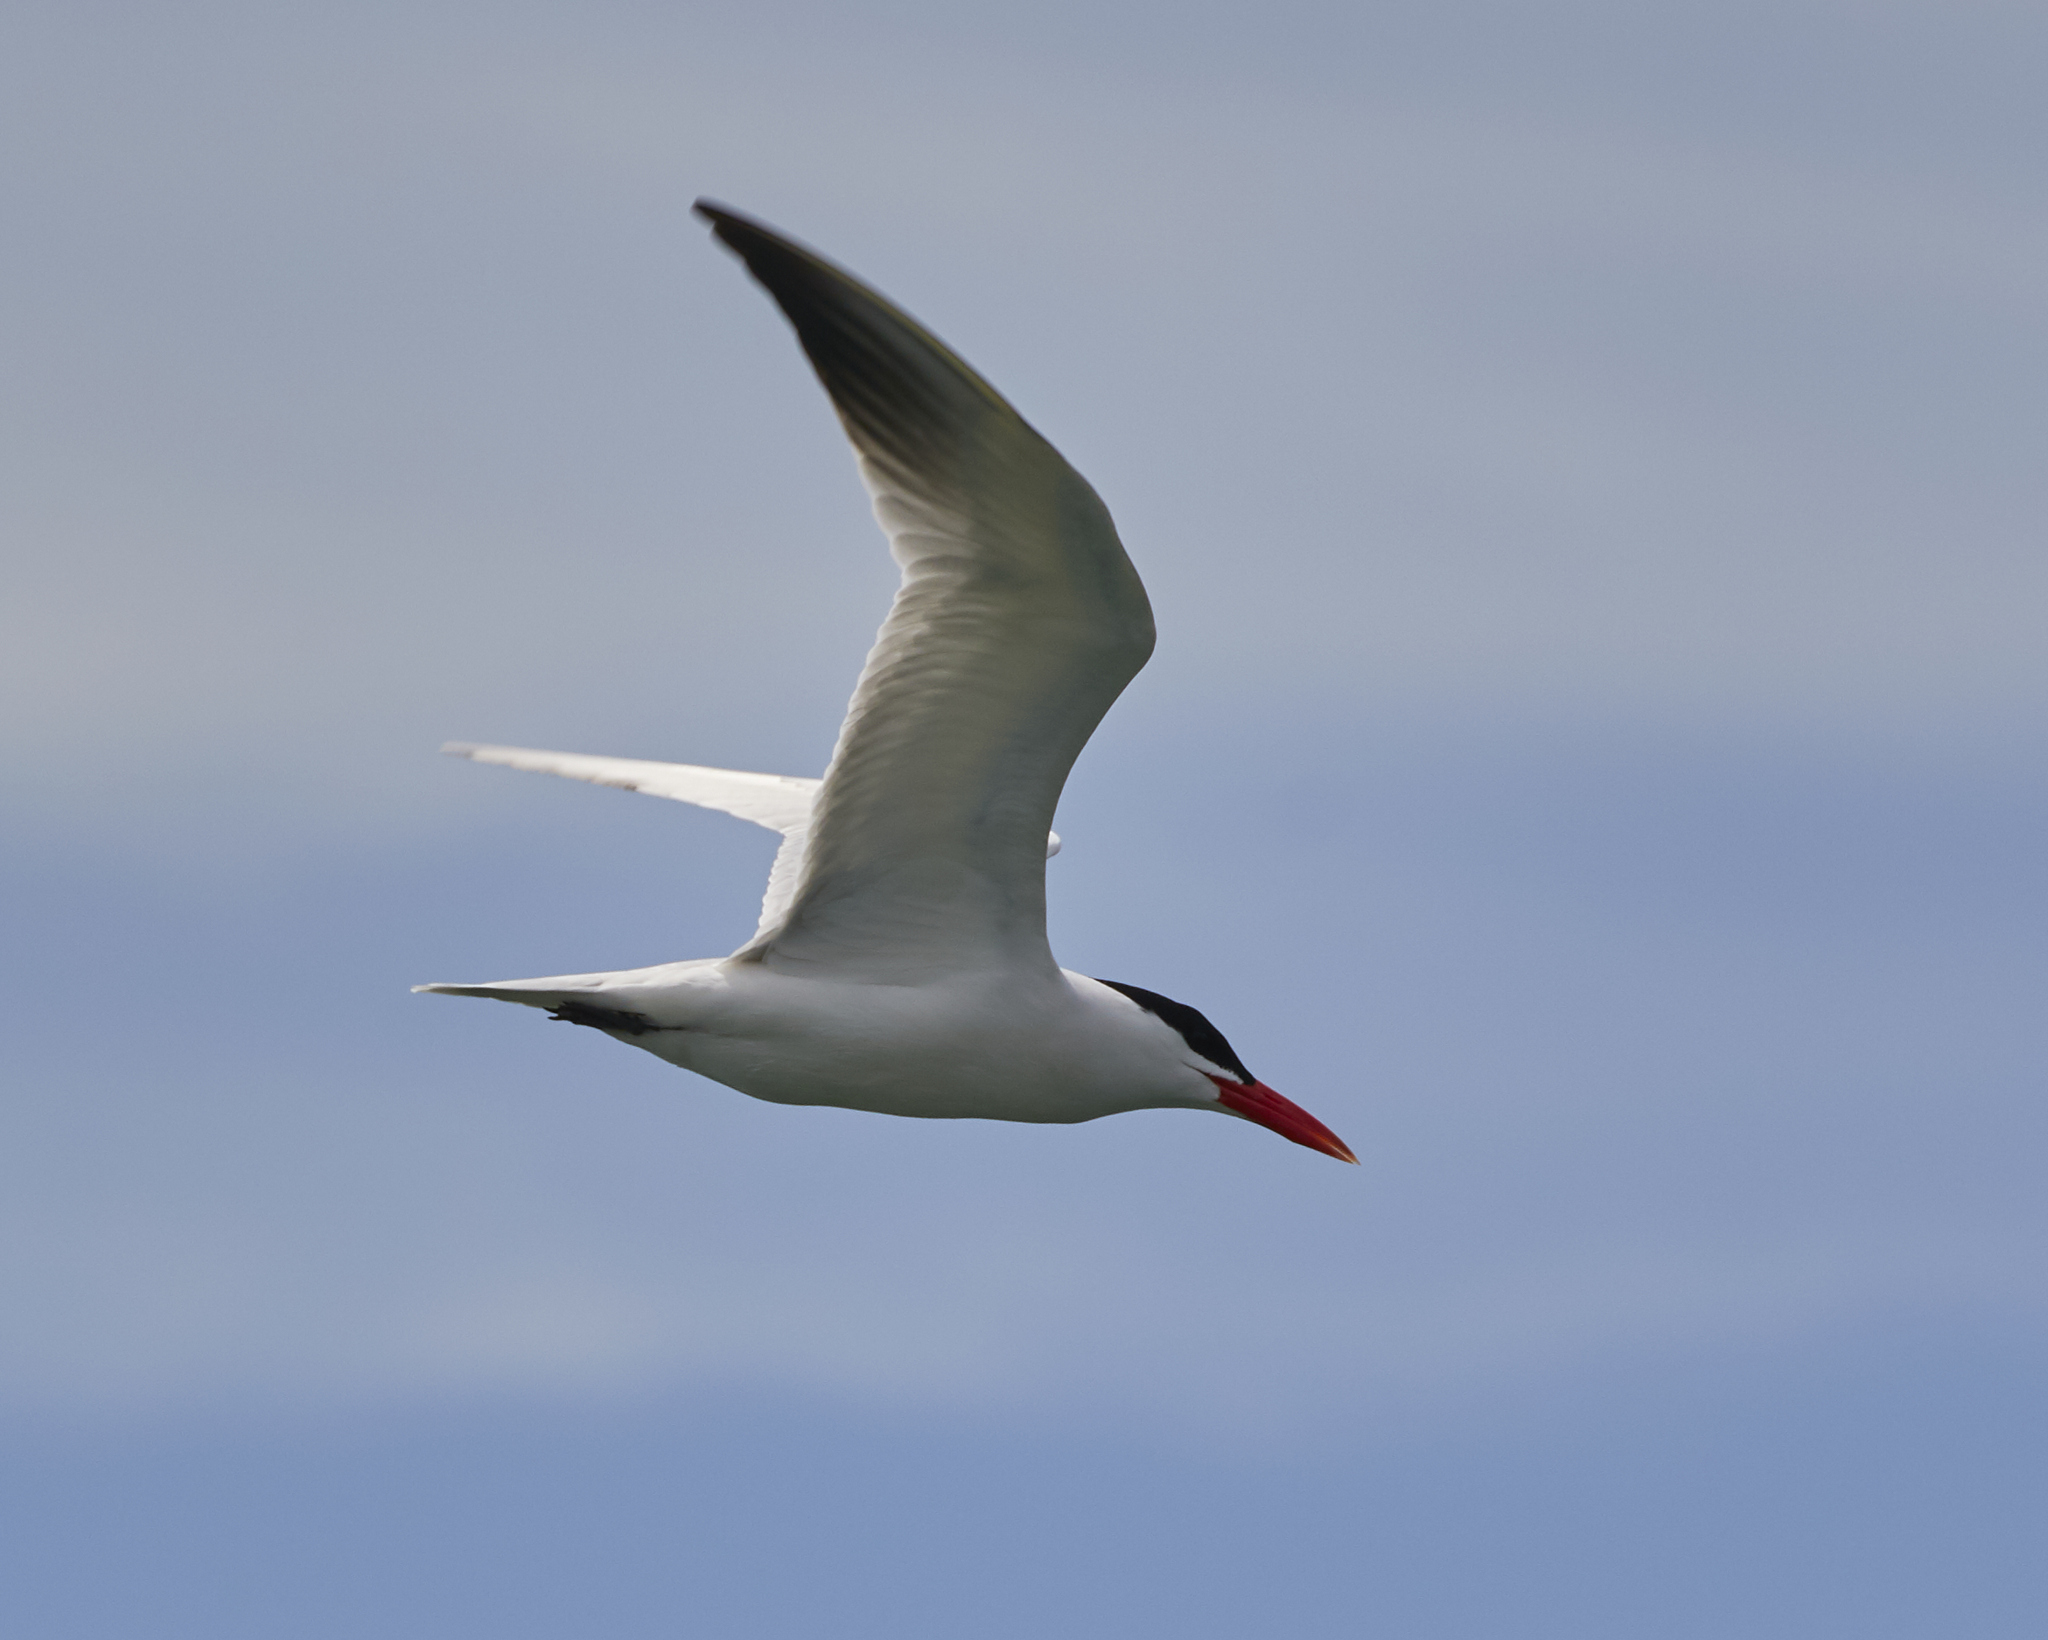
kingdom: Animalia
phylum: Chordata
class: Aves
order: Charadriiformes
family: Laridae
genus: Hydroprogne
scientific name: Hydroprogne caspia
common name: Caspian tern
